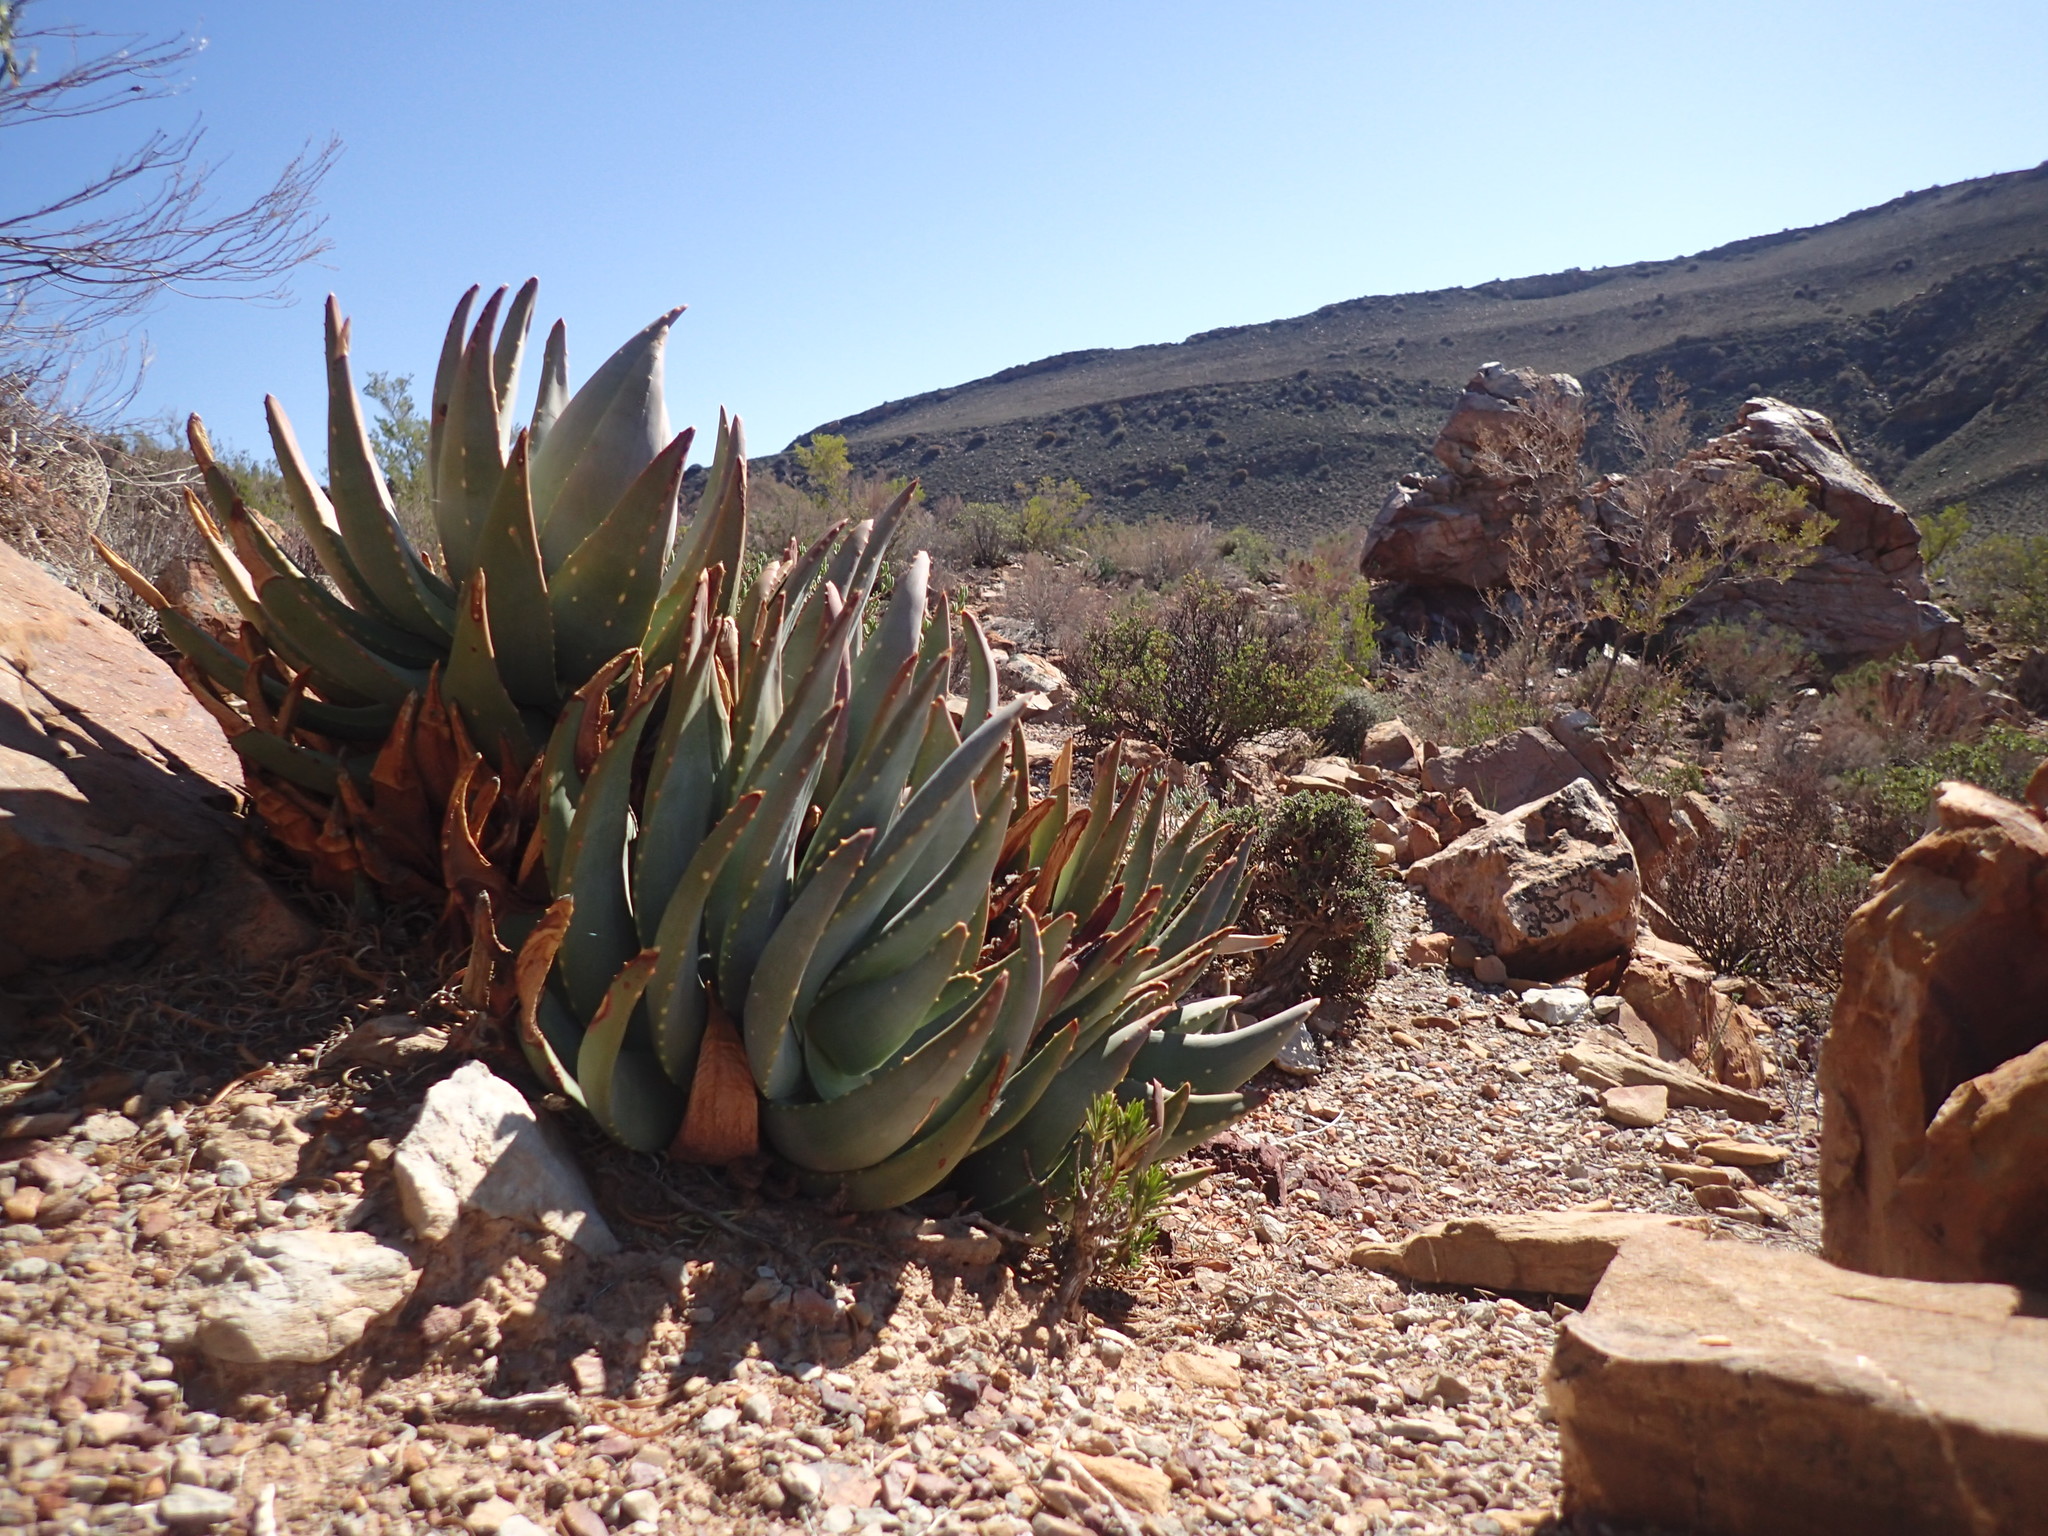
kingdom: Plantae
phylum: Tracheophyta
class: Liliopsida
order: Asparagales
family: Asphodelaceae
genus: Aloe
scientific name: Aloe comptonii
